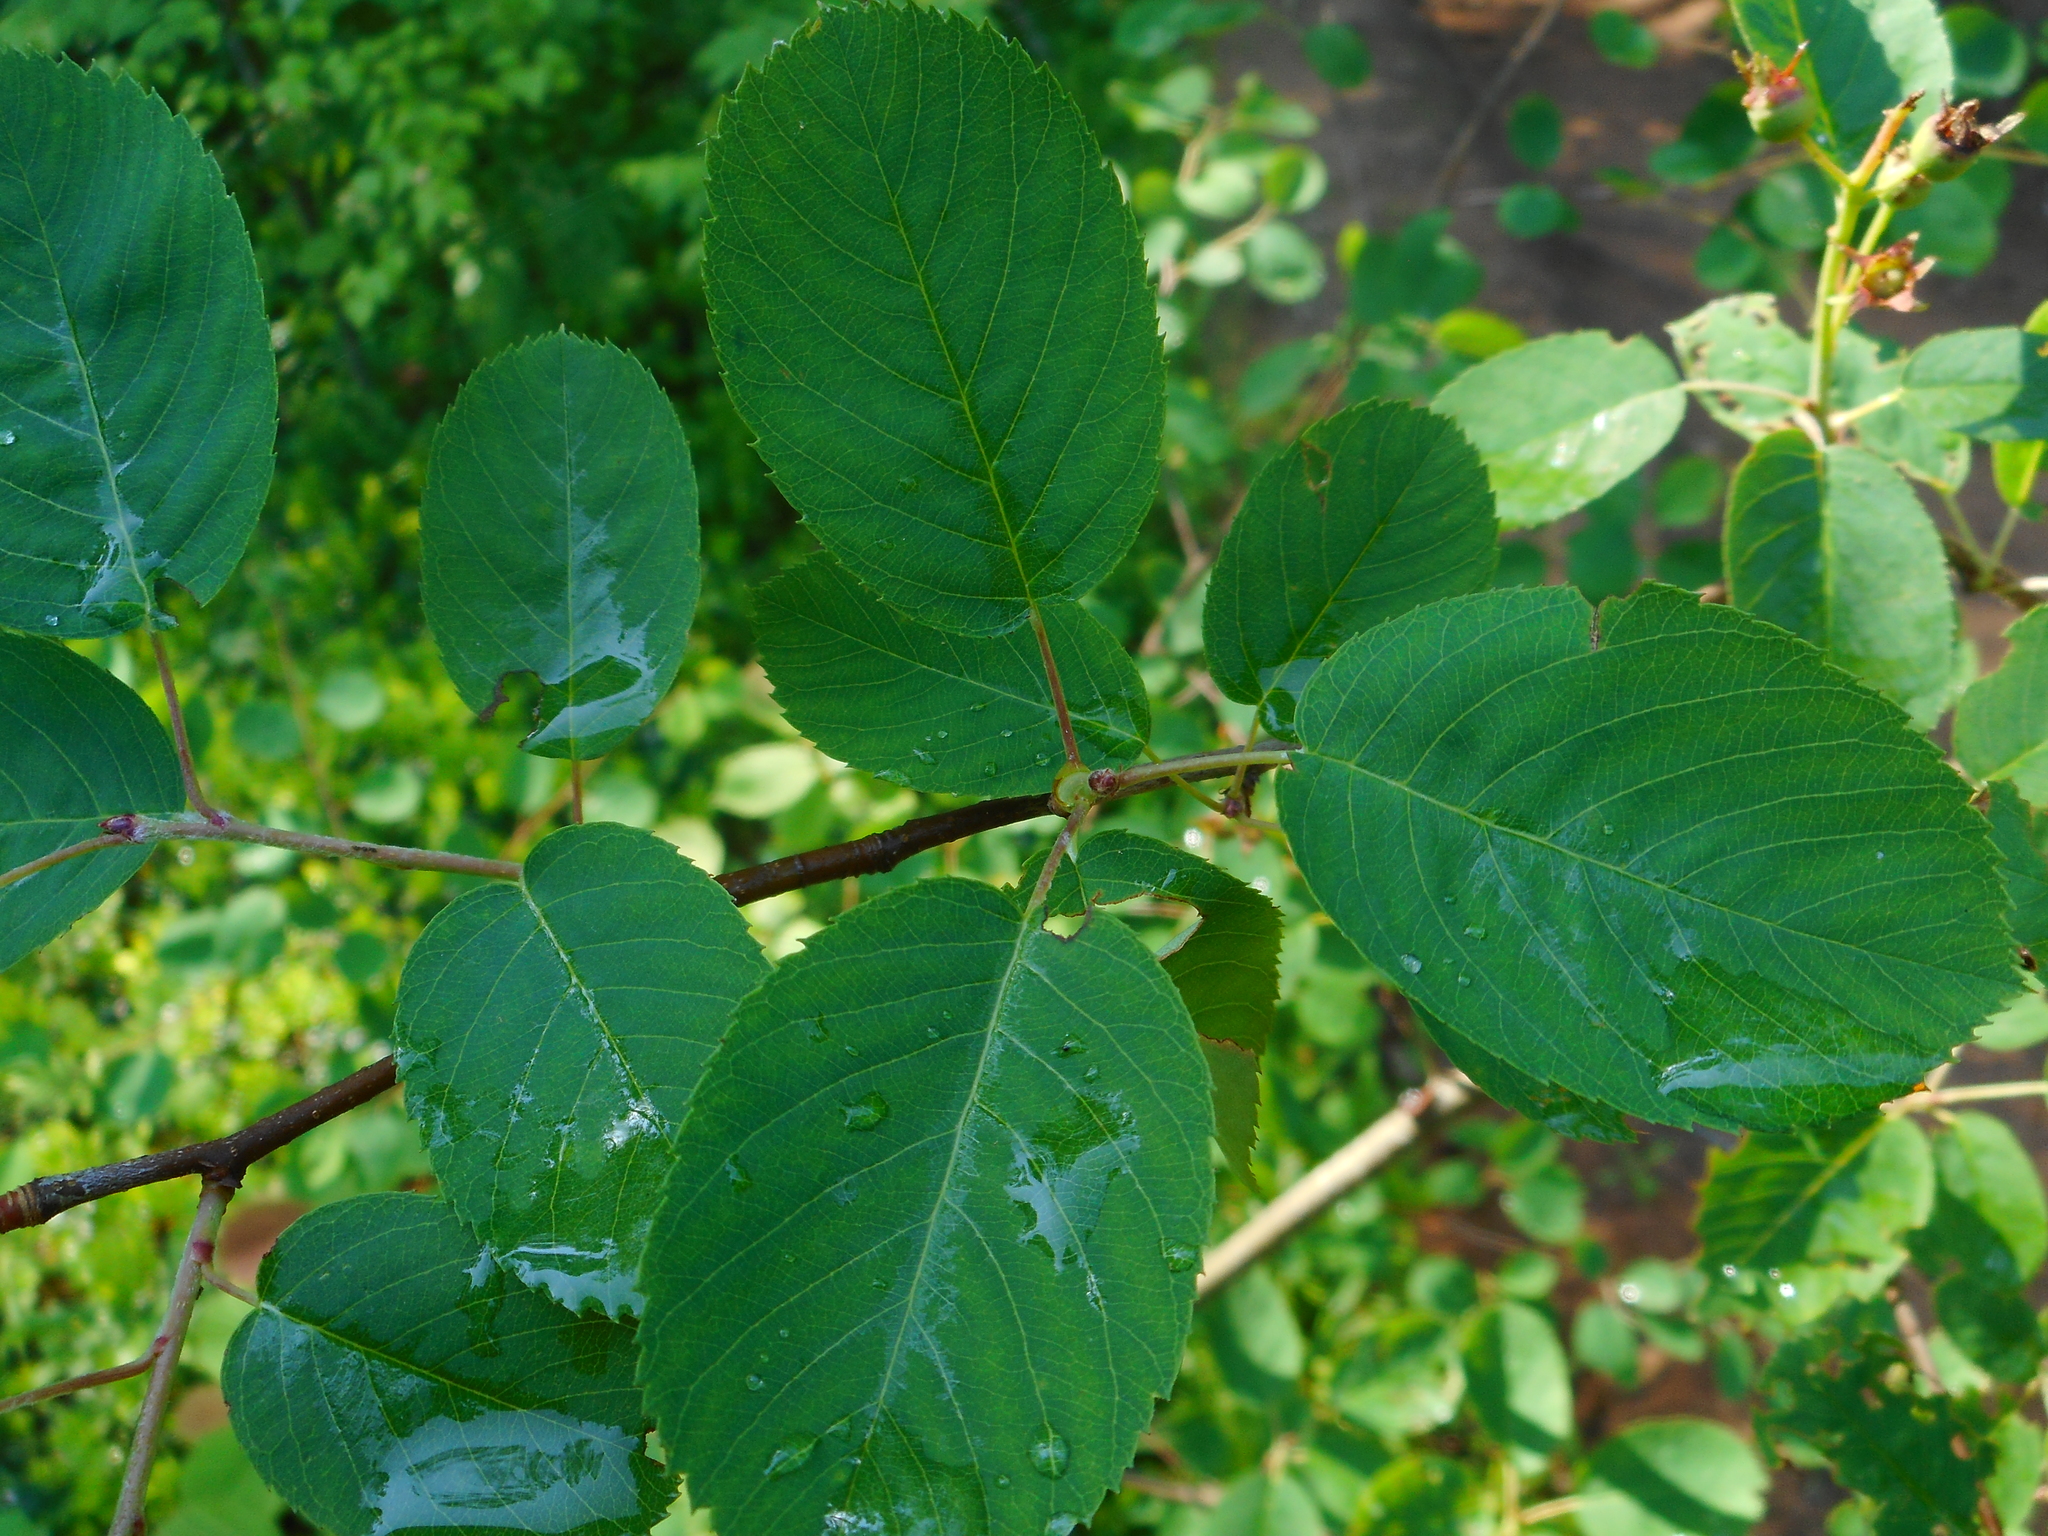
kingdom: Plantae
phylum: Tracheophyta
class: Magnoliopsida
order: Rosales
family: Rosaceae
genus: Amelanchier
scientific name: Amelanchier
